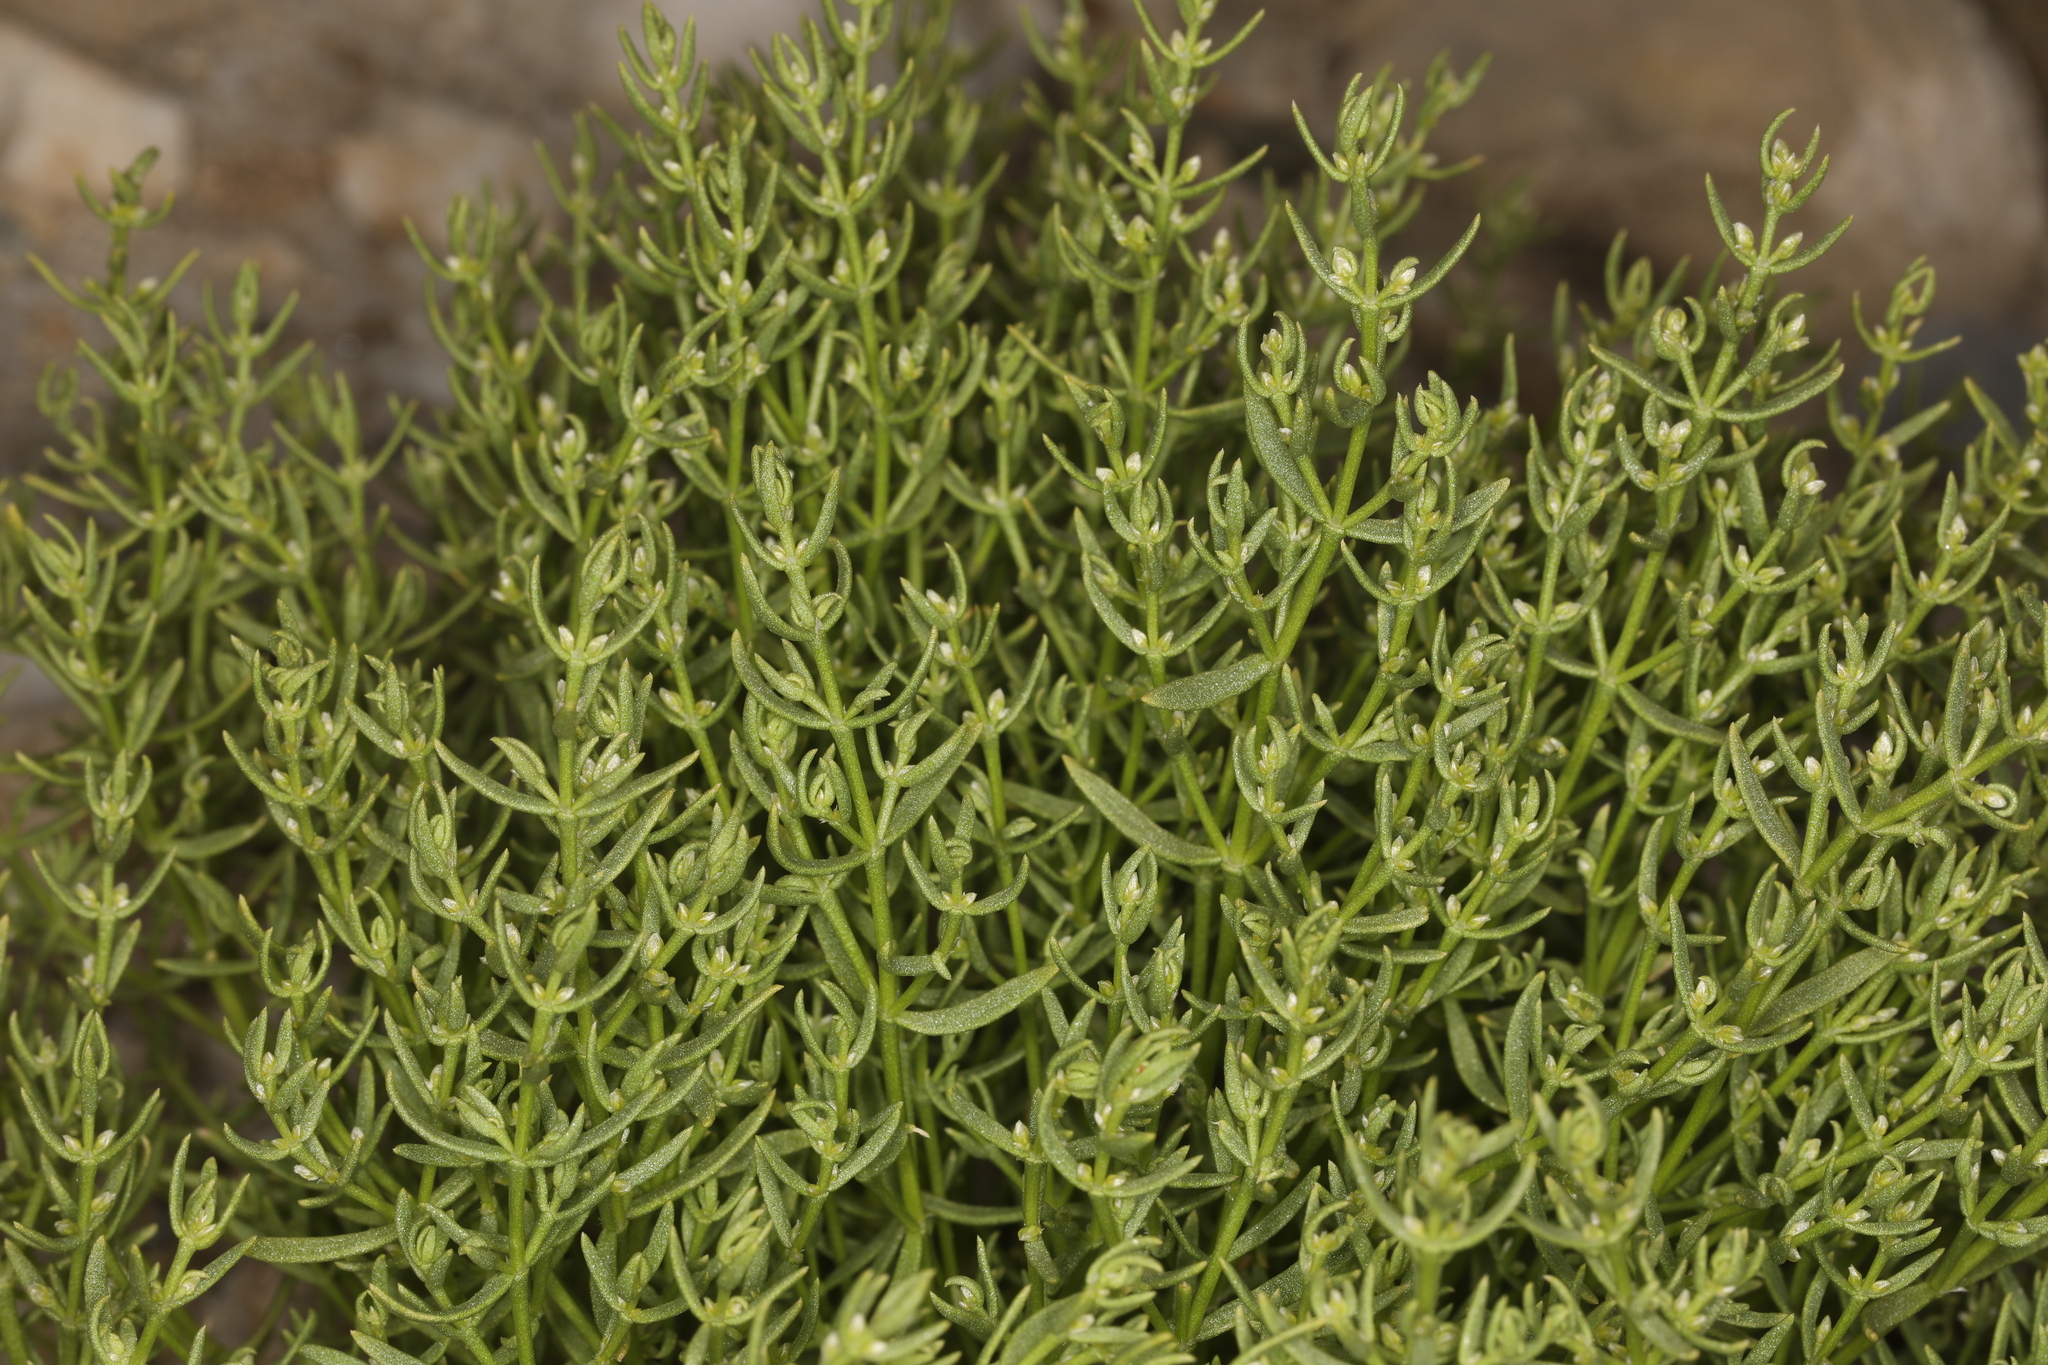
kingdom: Plantae
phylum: Tracheophyta
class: Magnoliopsida
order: Caryophyllales
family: Caryophyllaceae
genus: Scopulophila
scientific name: Scopulophila rixfordii
